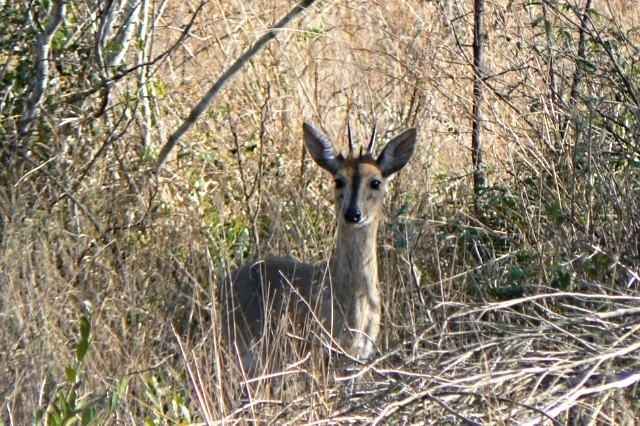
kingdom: Animalia
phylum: Chordata
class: Mammalia
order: Artiodactyla
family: Bovidae
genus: Sylvicapra
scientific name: Sylvicapra grimmia
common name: Bush duiker
